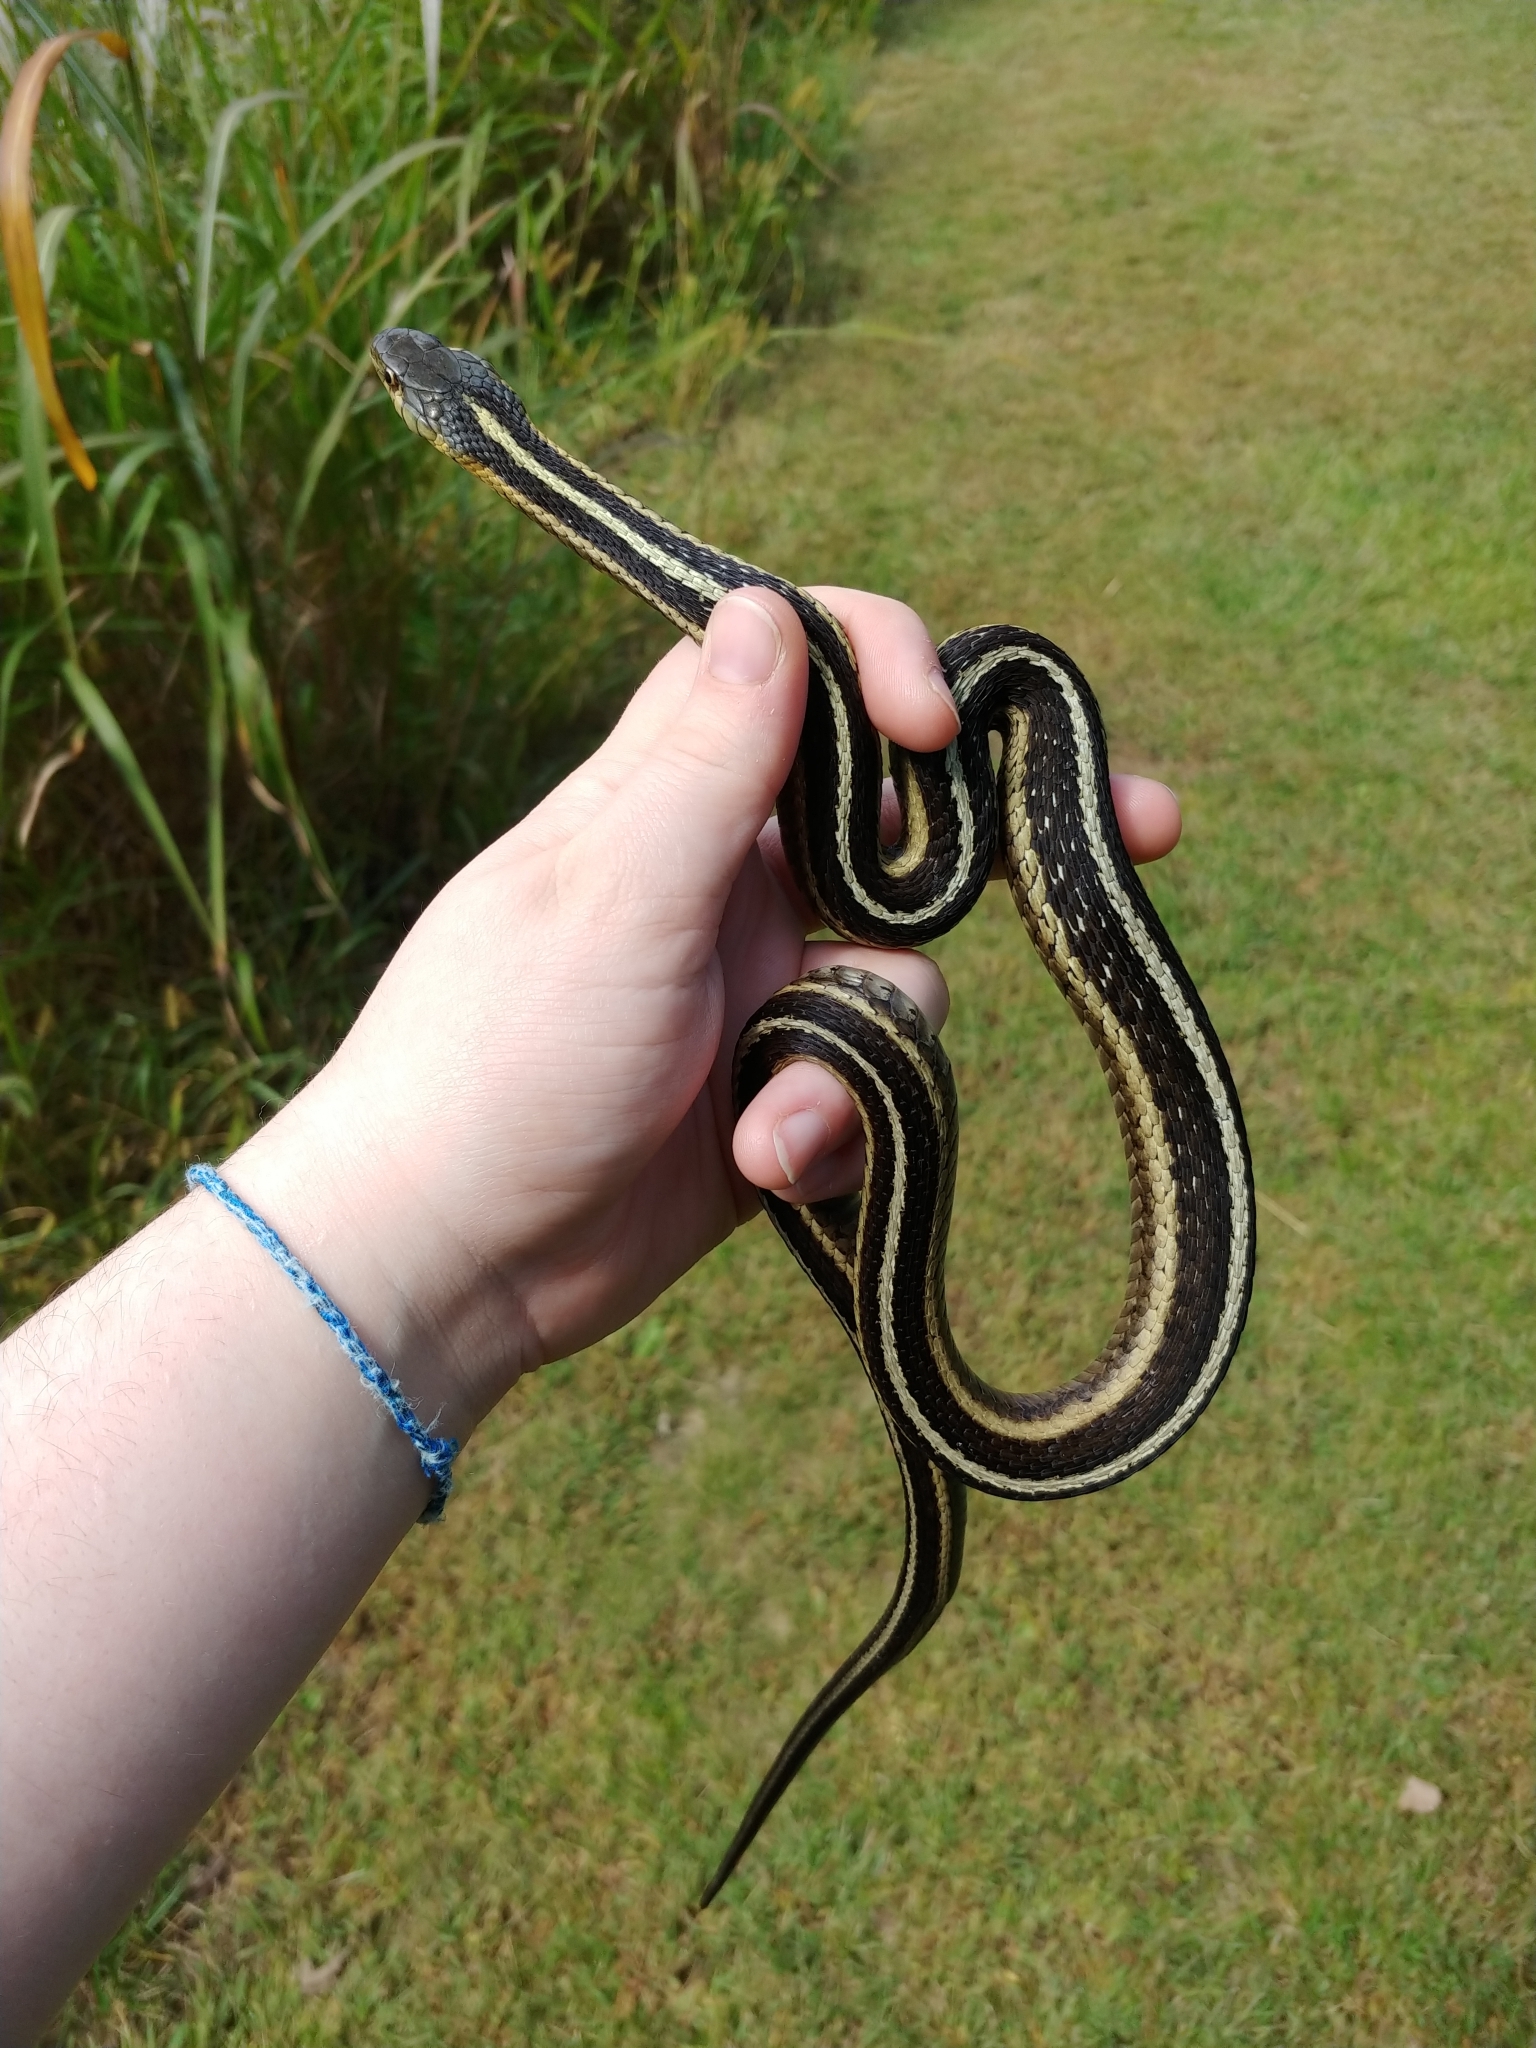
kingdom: Animalia
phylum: Chordata
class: Squamata
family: Colubridae
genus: Thamnophis
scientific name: Thamnophis sirtalis
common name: Common garter snake
